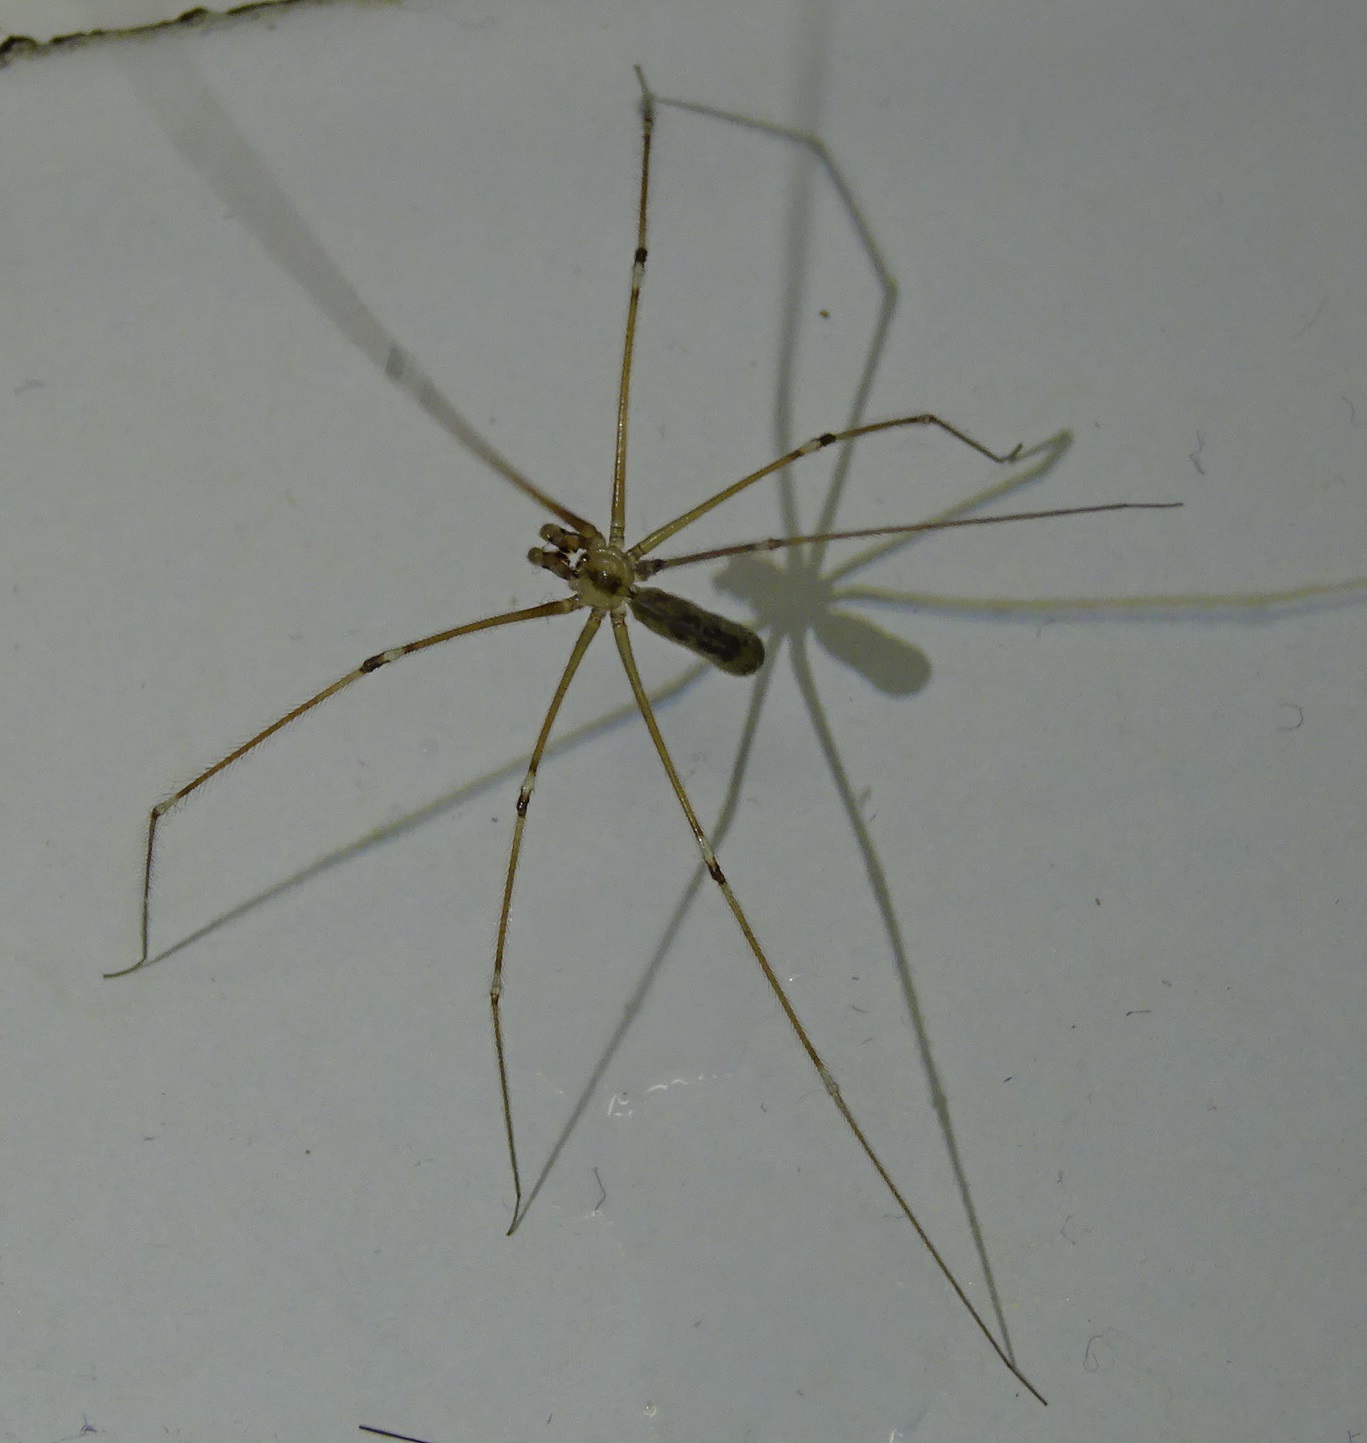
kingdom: Animalia
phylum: Arthropoda
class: Arachnida
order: Araneae
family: Pholcidae
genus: Pholcus
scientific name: Pholcus phalangioides
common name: Longbodied cellar spider
